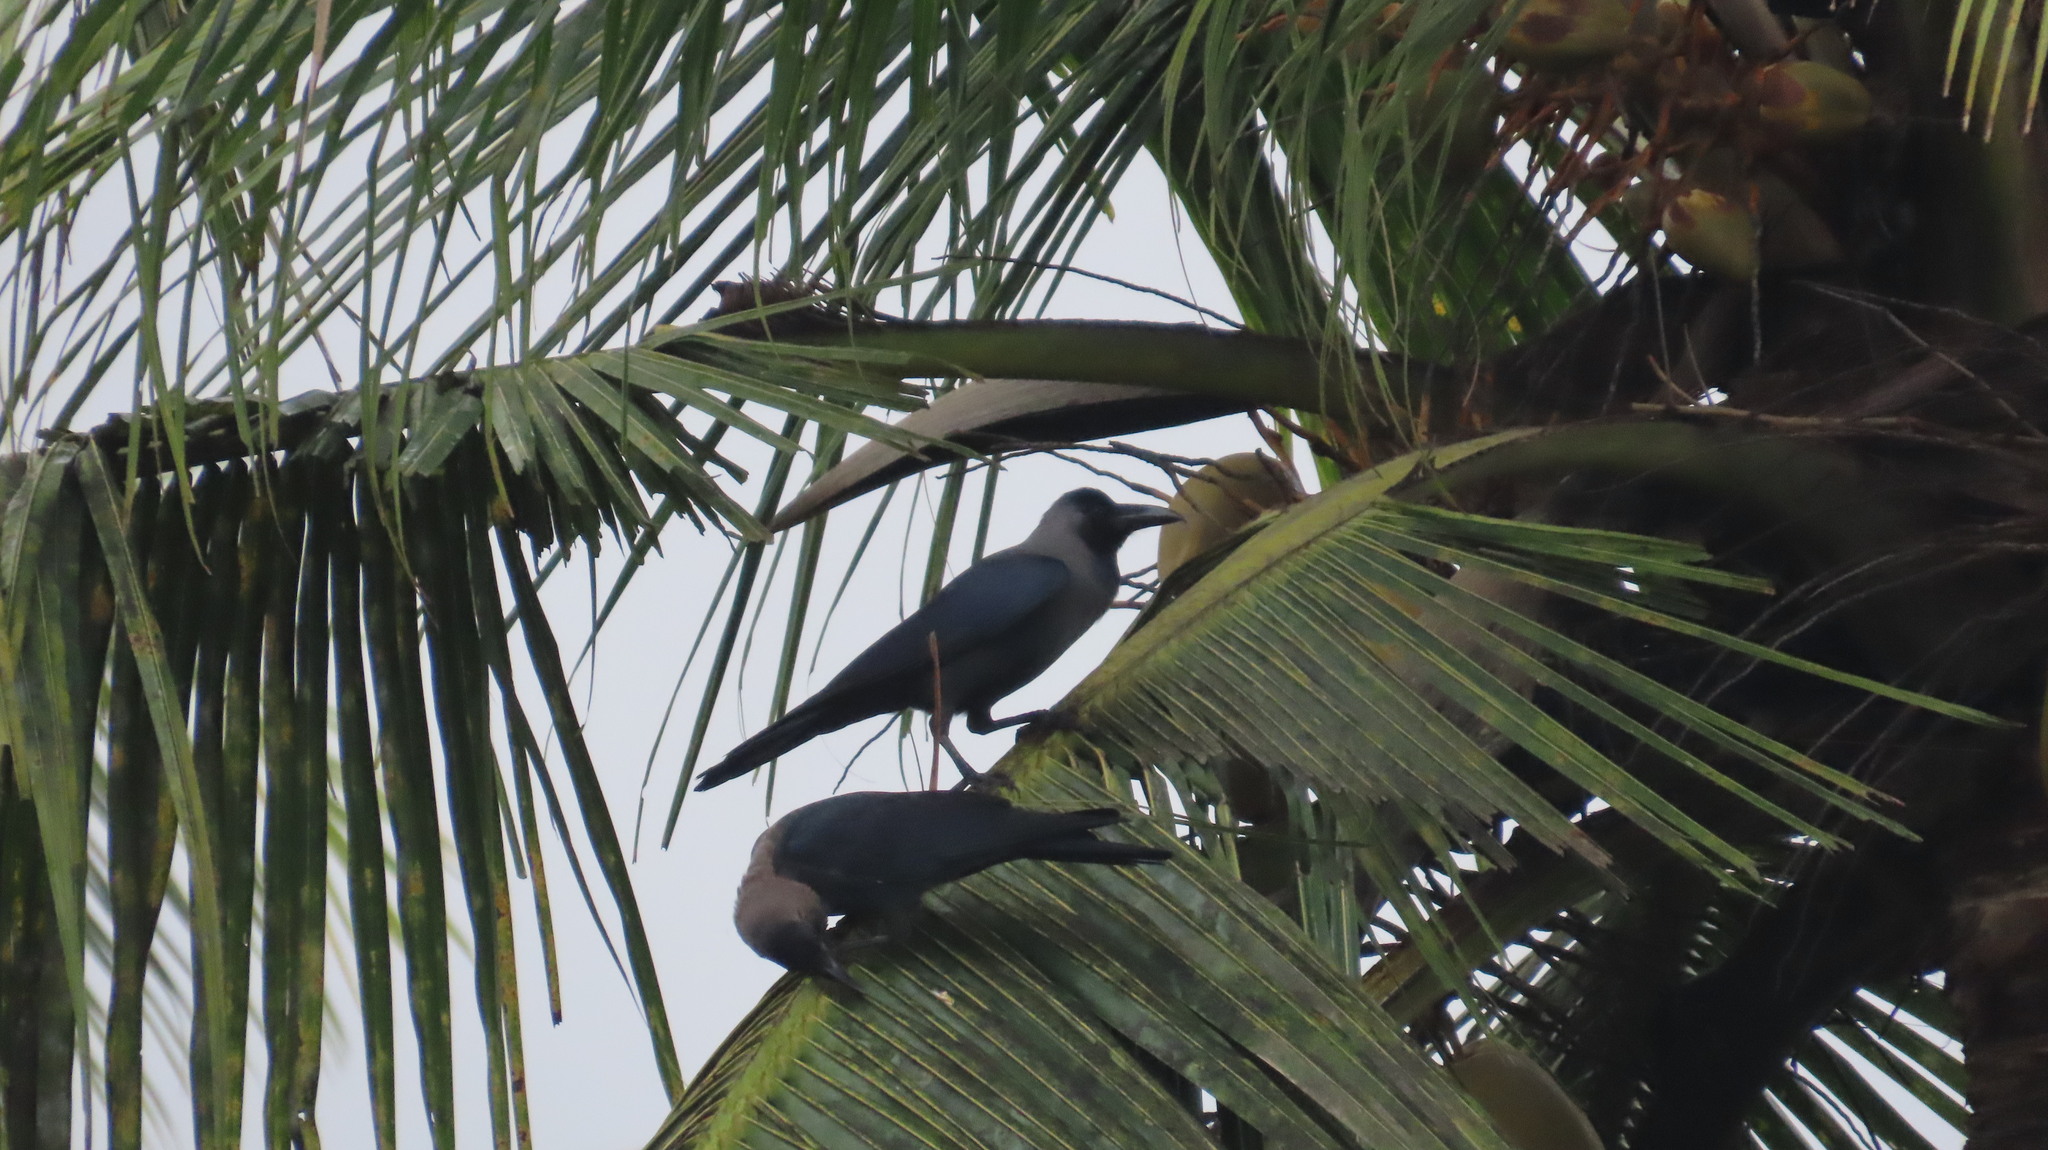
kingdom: Animalia
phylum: Chordata
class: Aves
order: Passeriformes
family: Corvidae
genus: Corvus
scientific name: Corvus splendens
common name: House crow
